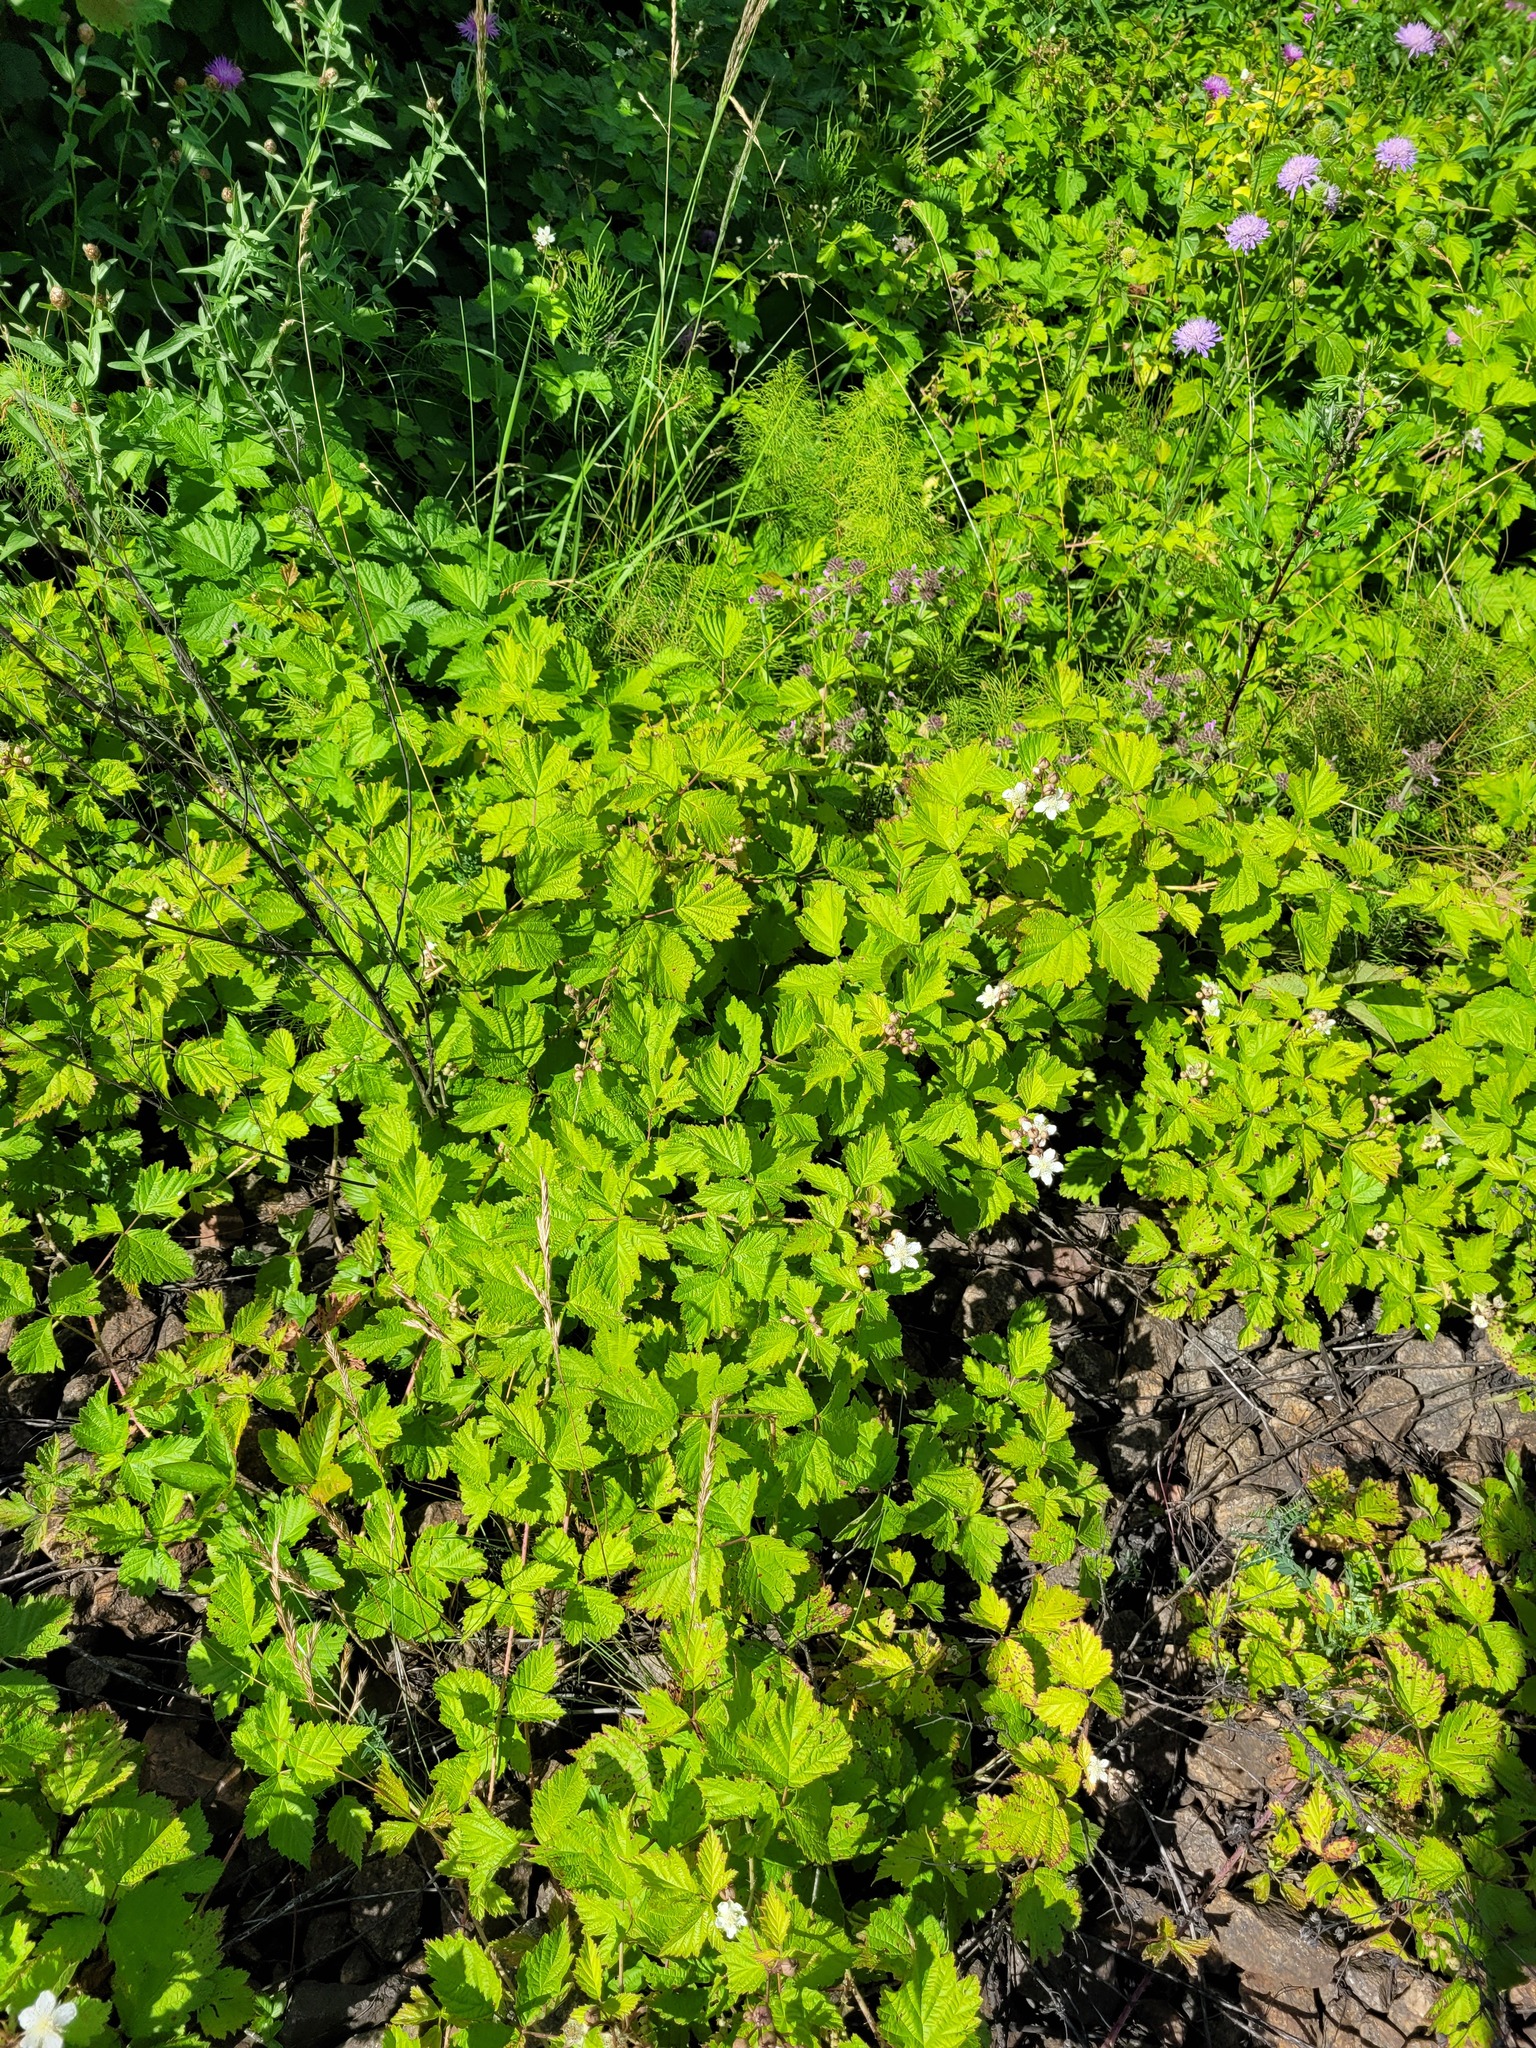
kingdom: Plantae
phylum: Tracheophyta
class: Magnoliopsida
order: Rosales
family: Rosaceae
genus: Rubus
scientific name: Rubus caesius
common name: Dewberry
